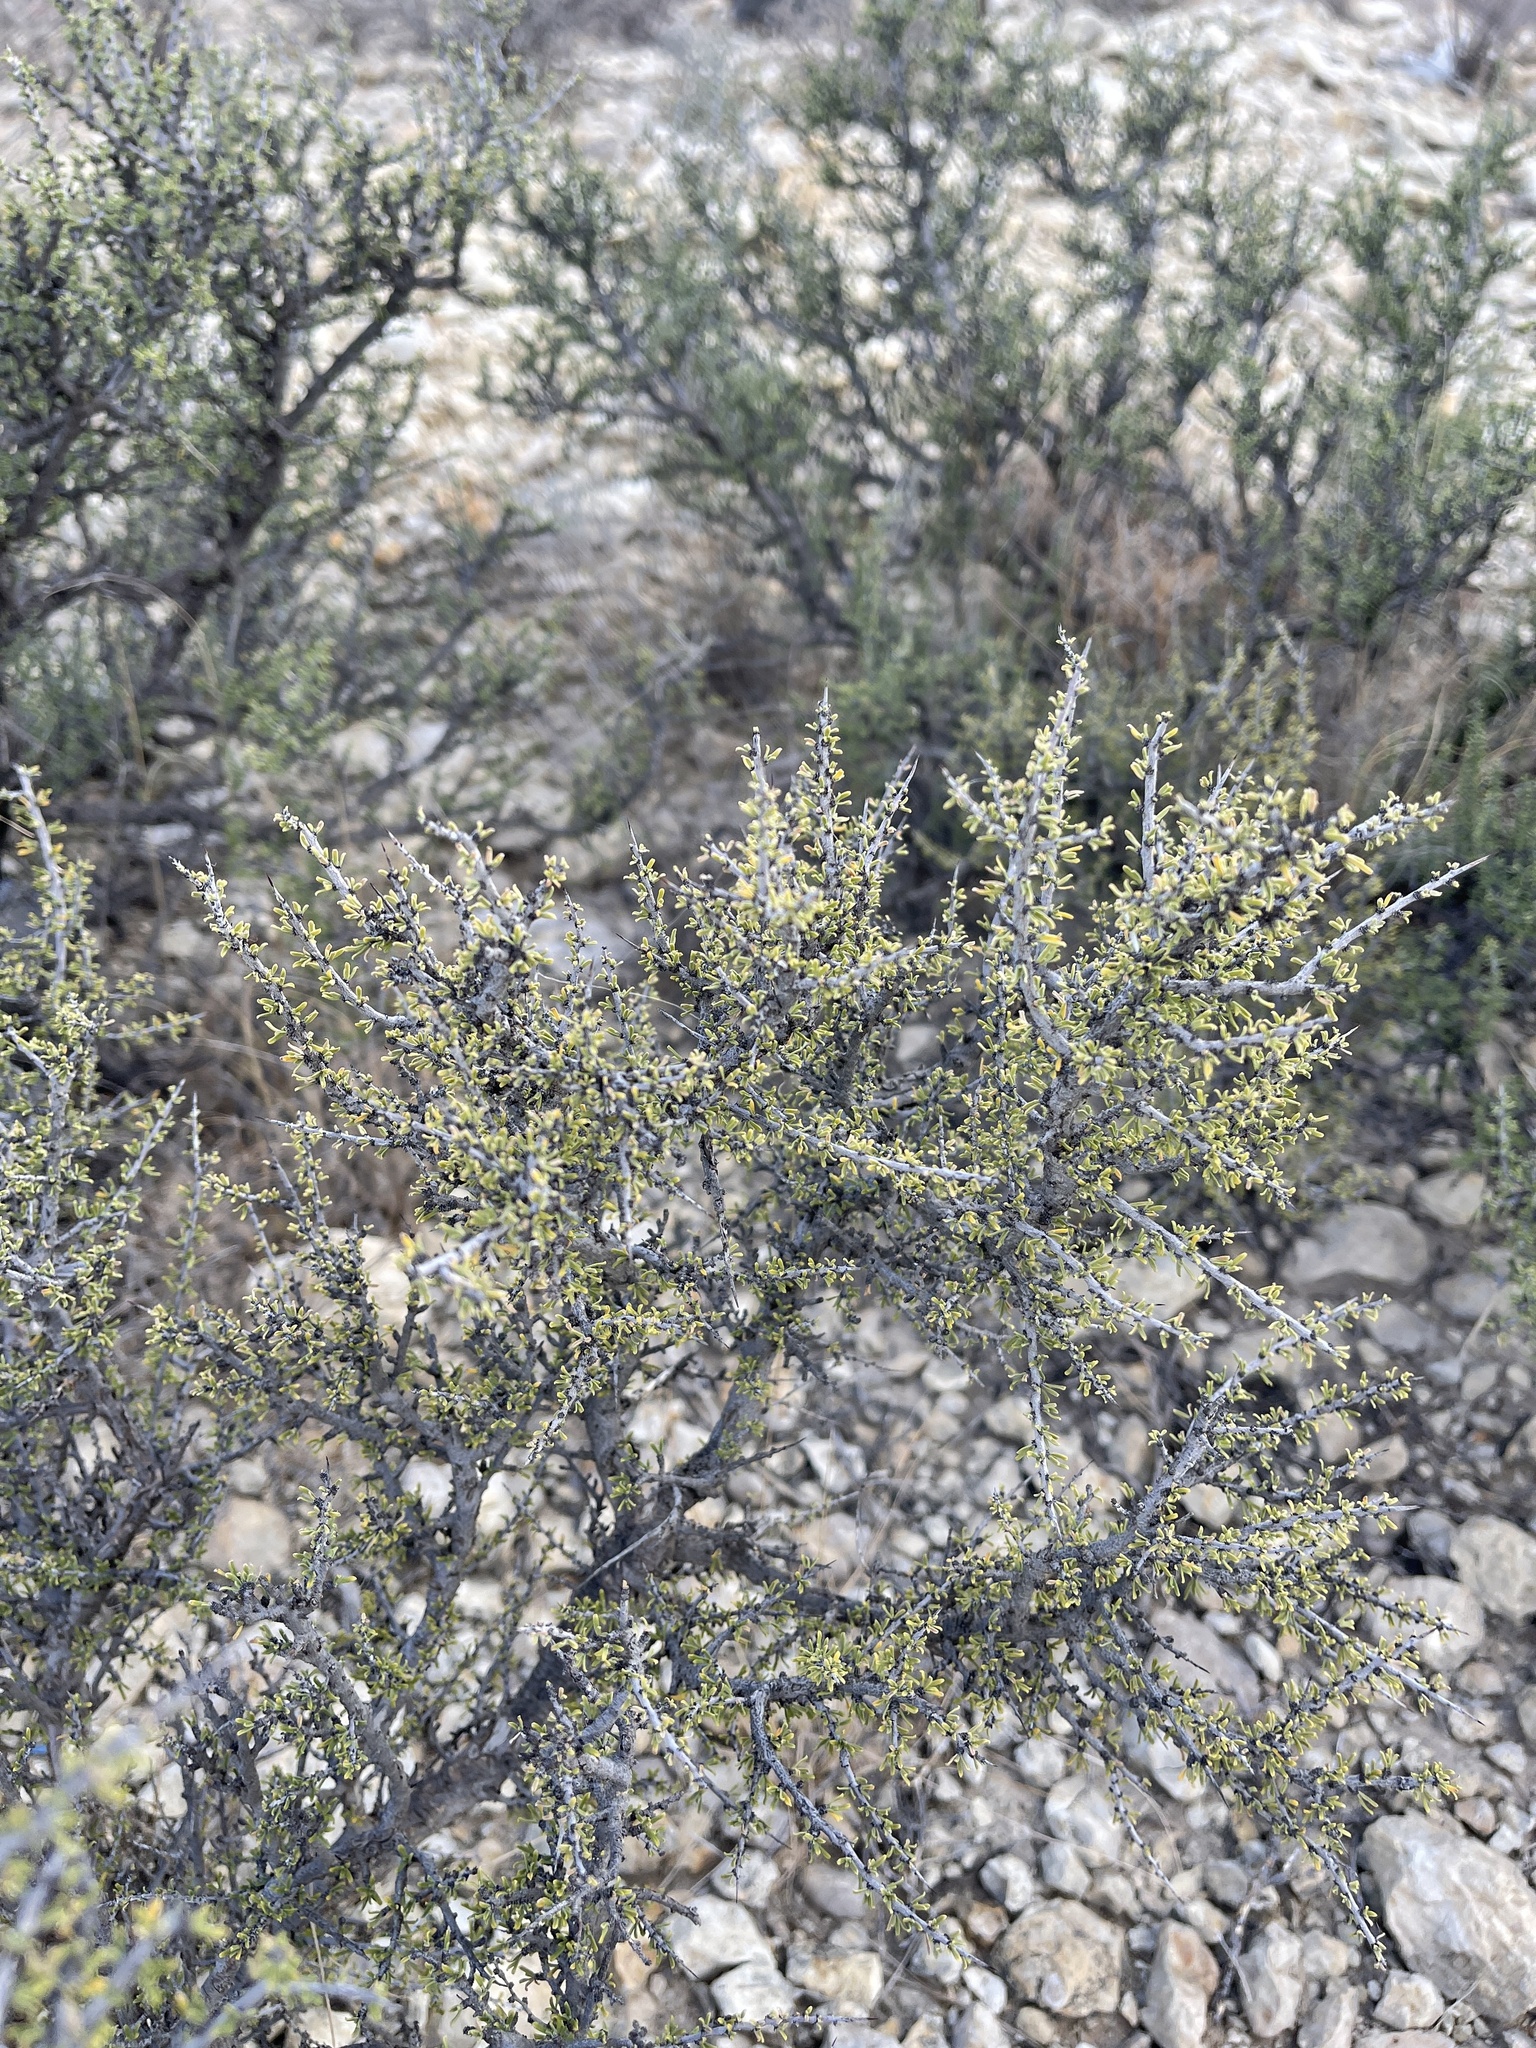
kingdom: Plantae
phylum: Tracheophyta
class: Magnoliopsida
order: Rosales
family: Rhamnaceae
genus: Condalia
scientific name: Condalia ericoides
